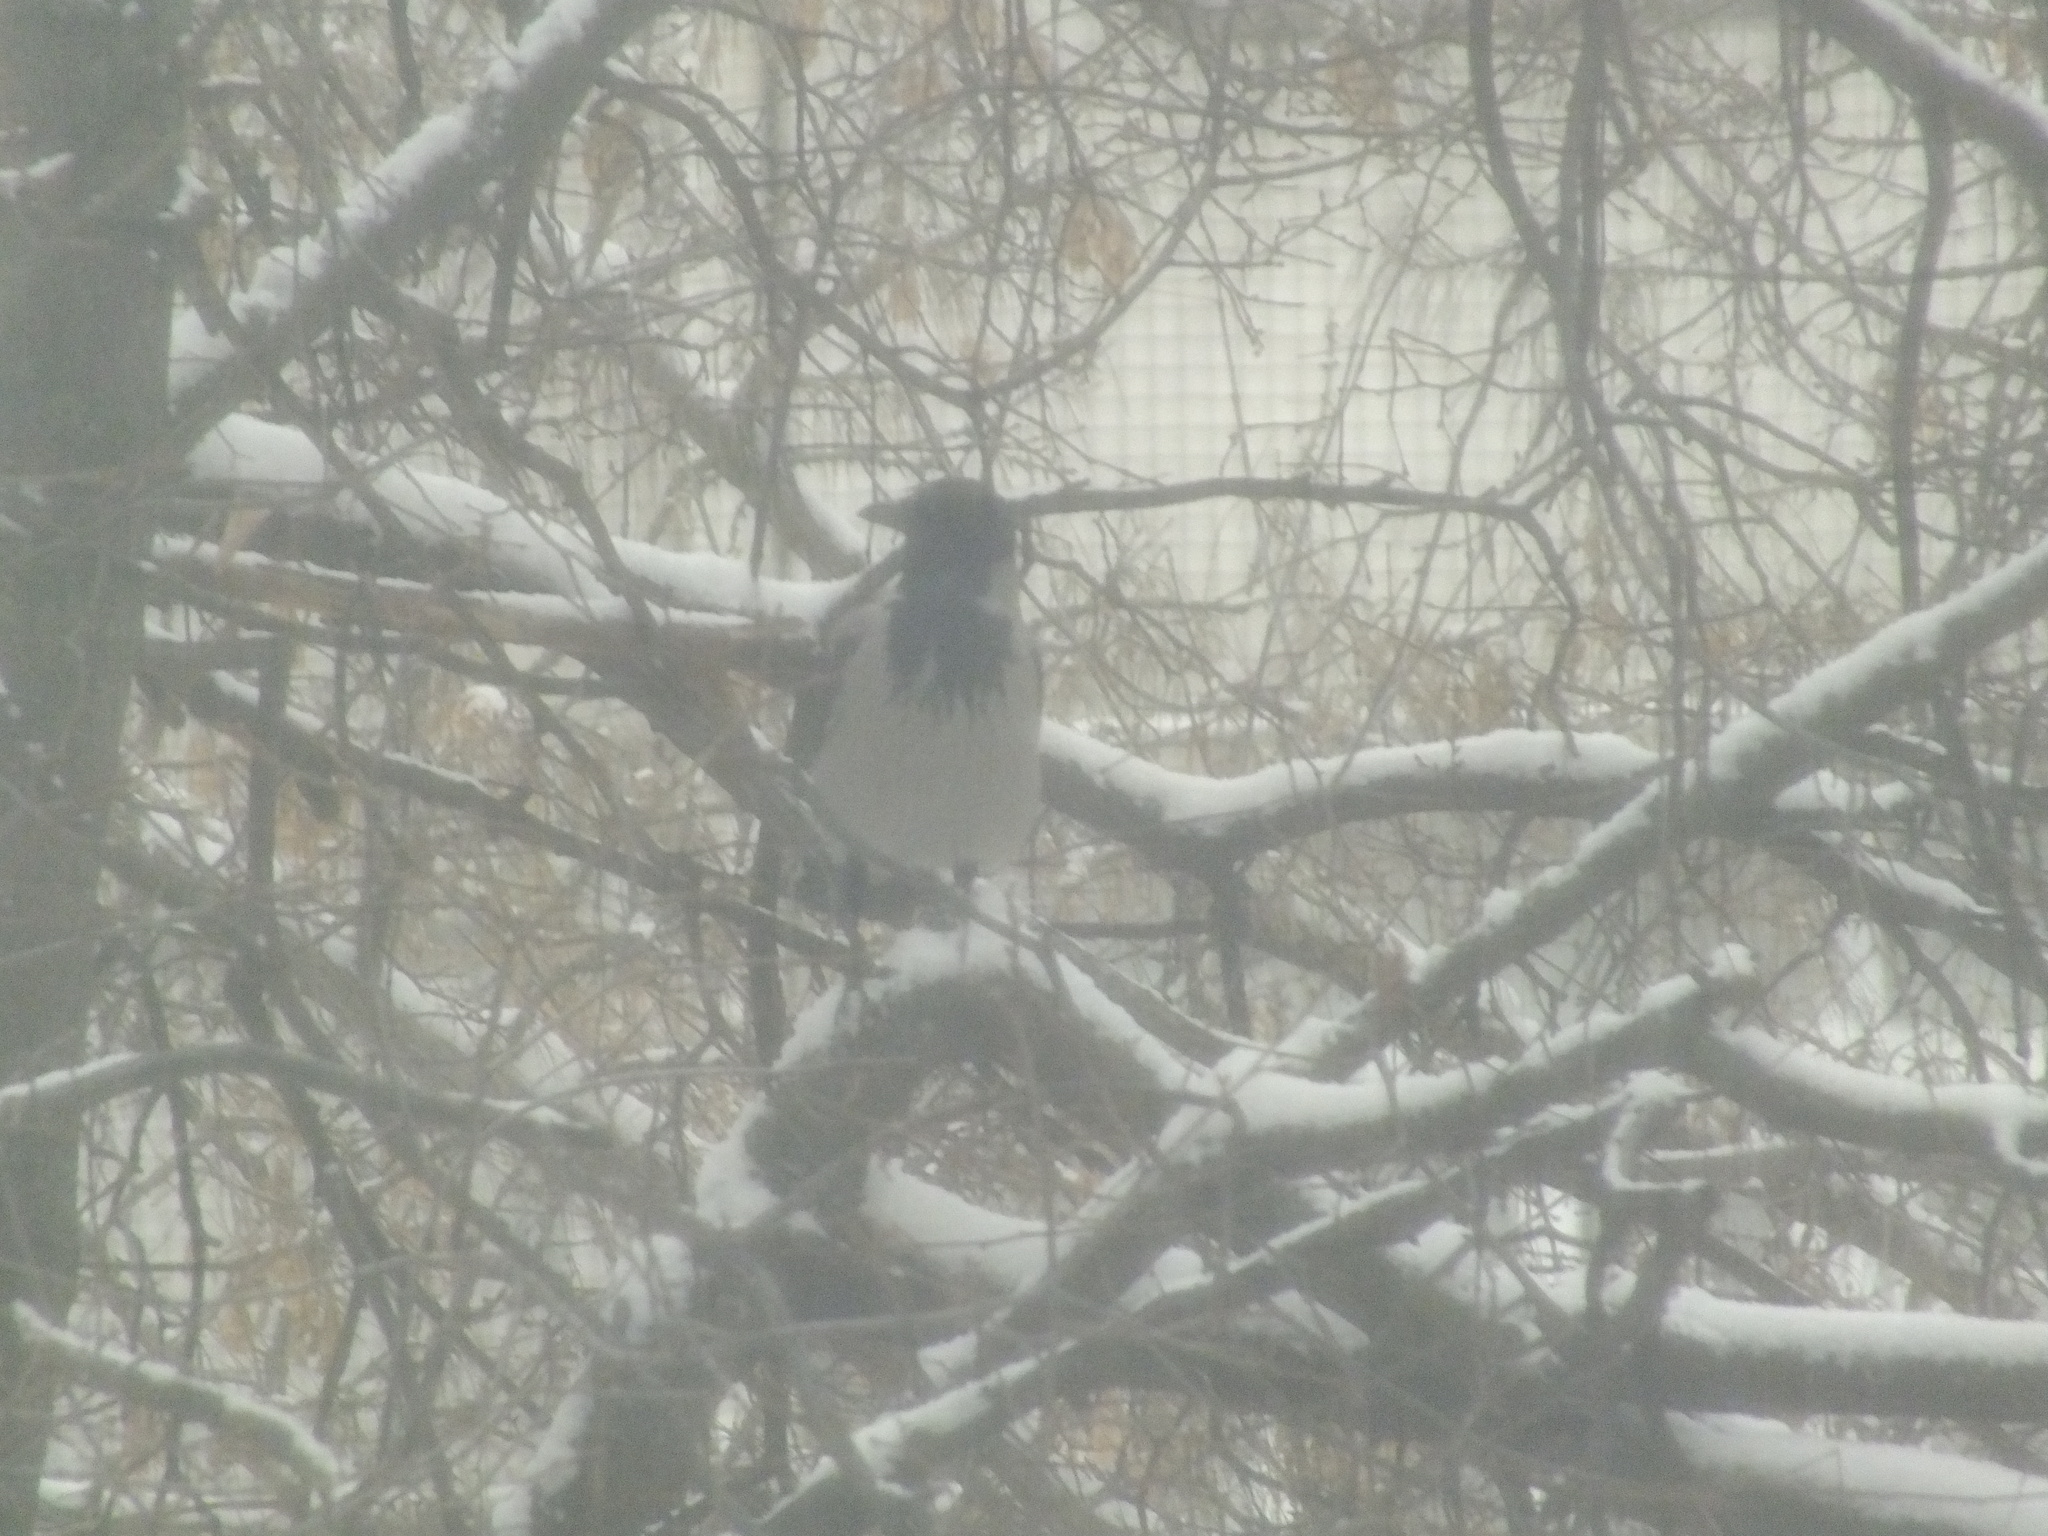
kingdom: Animalia
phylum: Chordata
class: Aves
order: Passeriformes
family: Corvidae
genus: Corvus
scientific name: Corvus cornix
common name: Hooded crow
